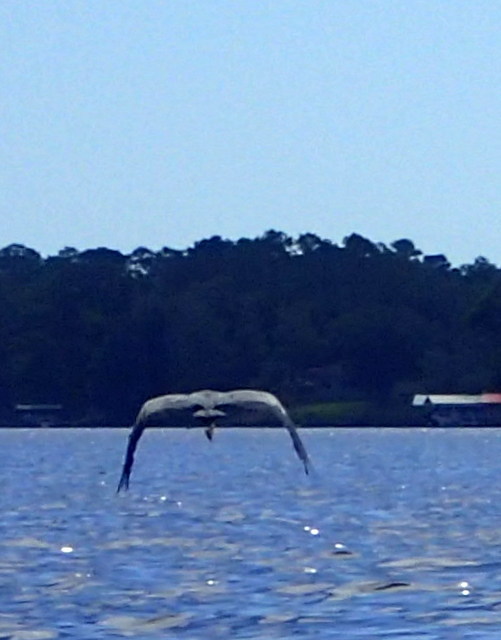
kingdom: Animalia
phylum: Chordata
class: Aves
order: Pelecaniformes
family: Ardeidae
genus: Ardea
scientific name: Ardea herodias
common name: Great blue heron
